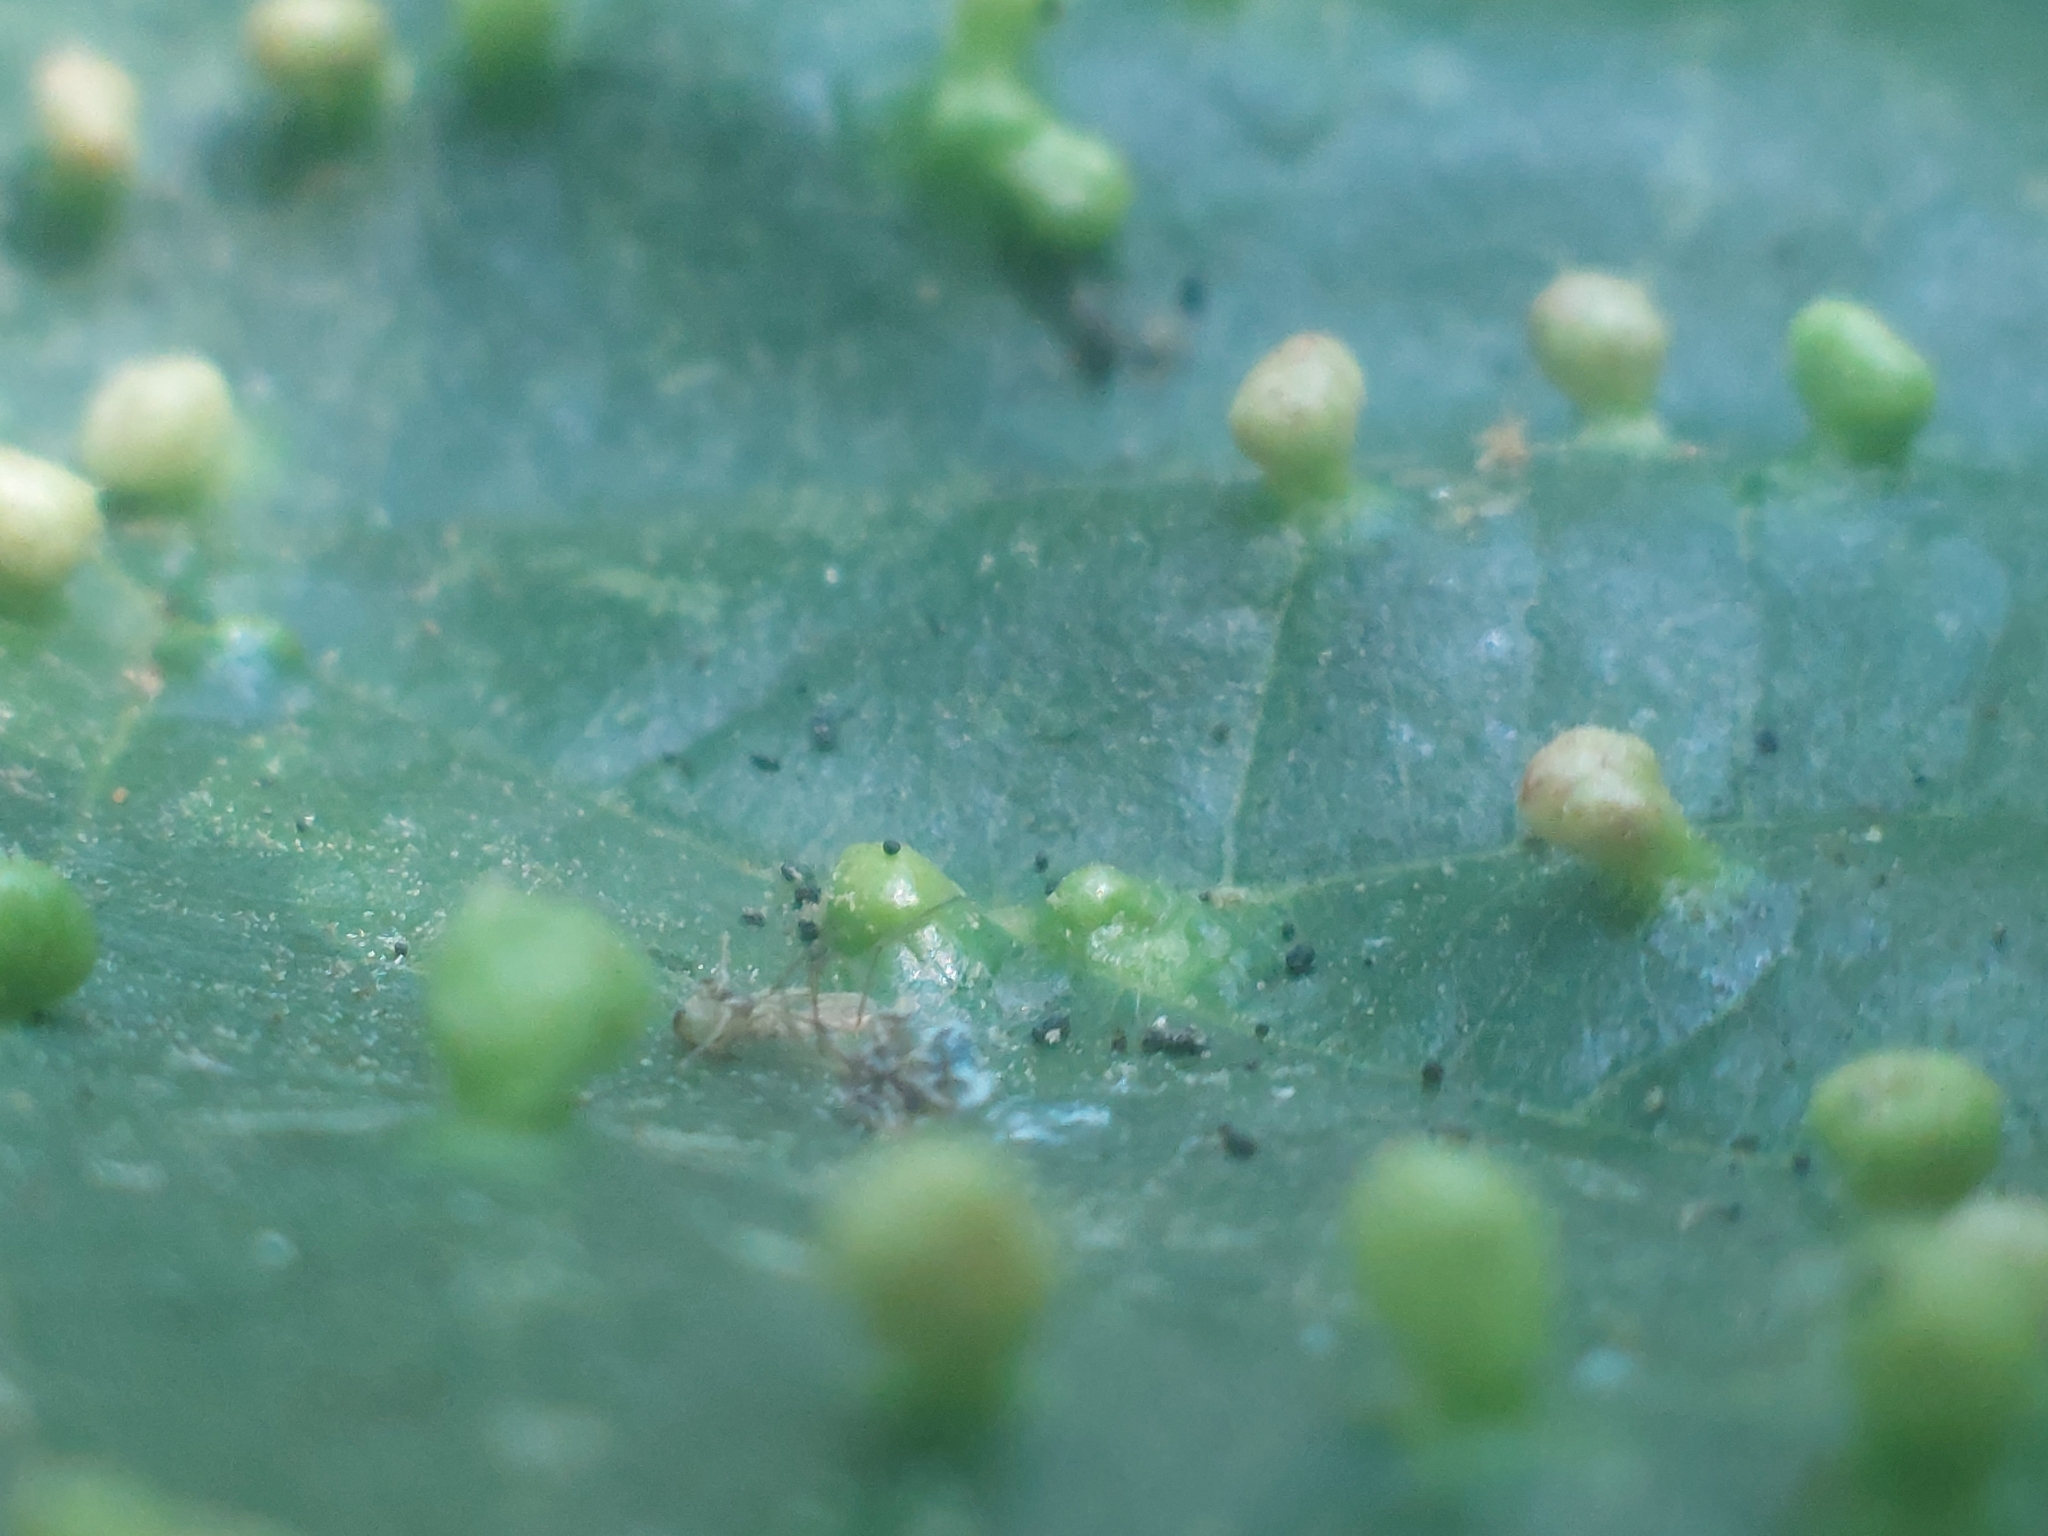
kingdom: Animalia
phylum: Arthropoda
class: Arachnida
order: Trombidiformes
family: Eriophyidae
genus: Eriophyes
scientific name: Eriophyes laevis
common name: Alder leaf gall mite
